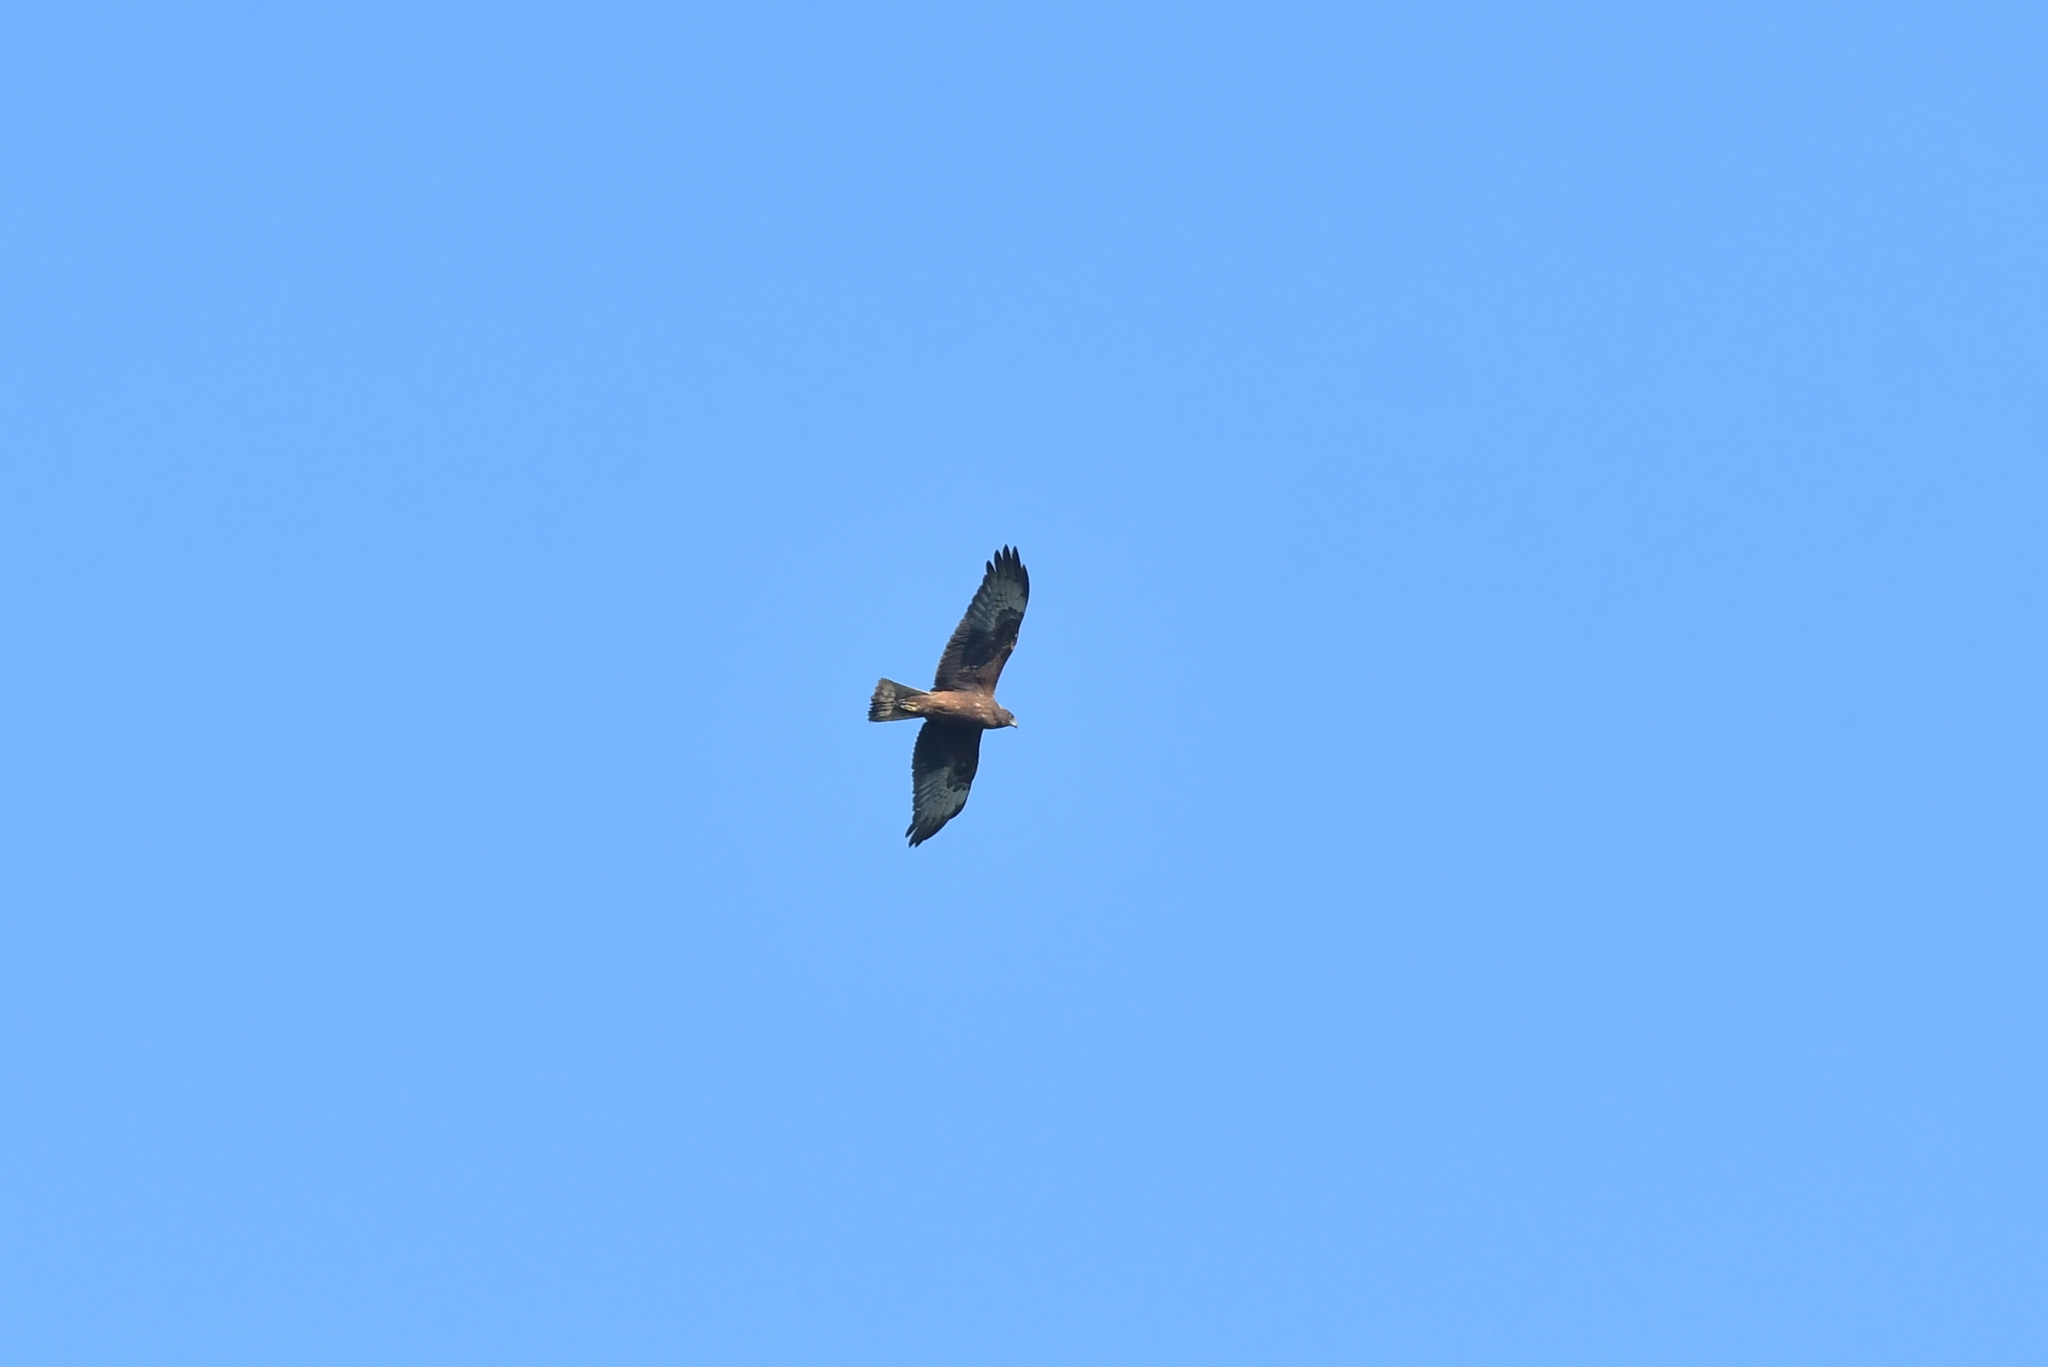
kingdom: Animalia
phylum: Chordata
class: Aves
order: Accipitriformes
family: Accipitridae
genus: Circus
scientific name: Circus approximans
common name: Swamp harrier
